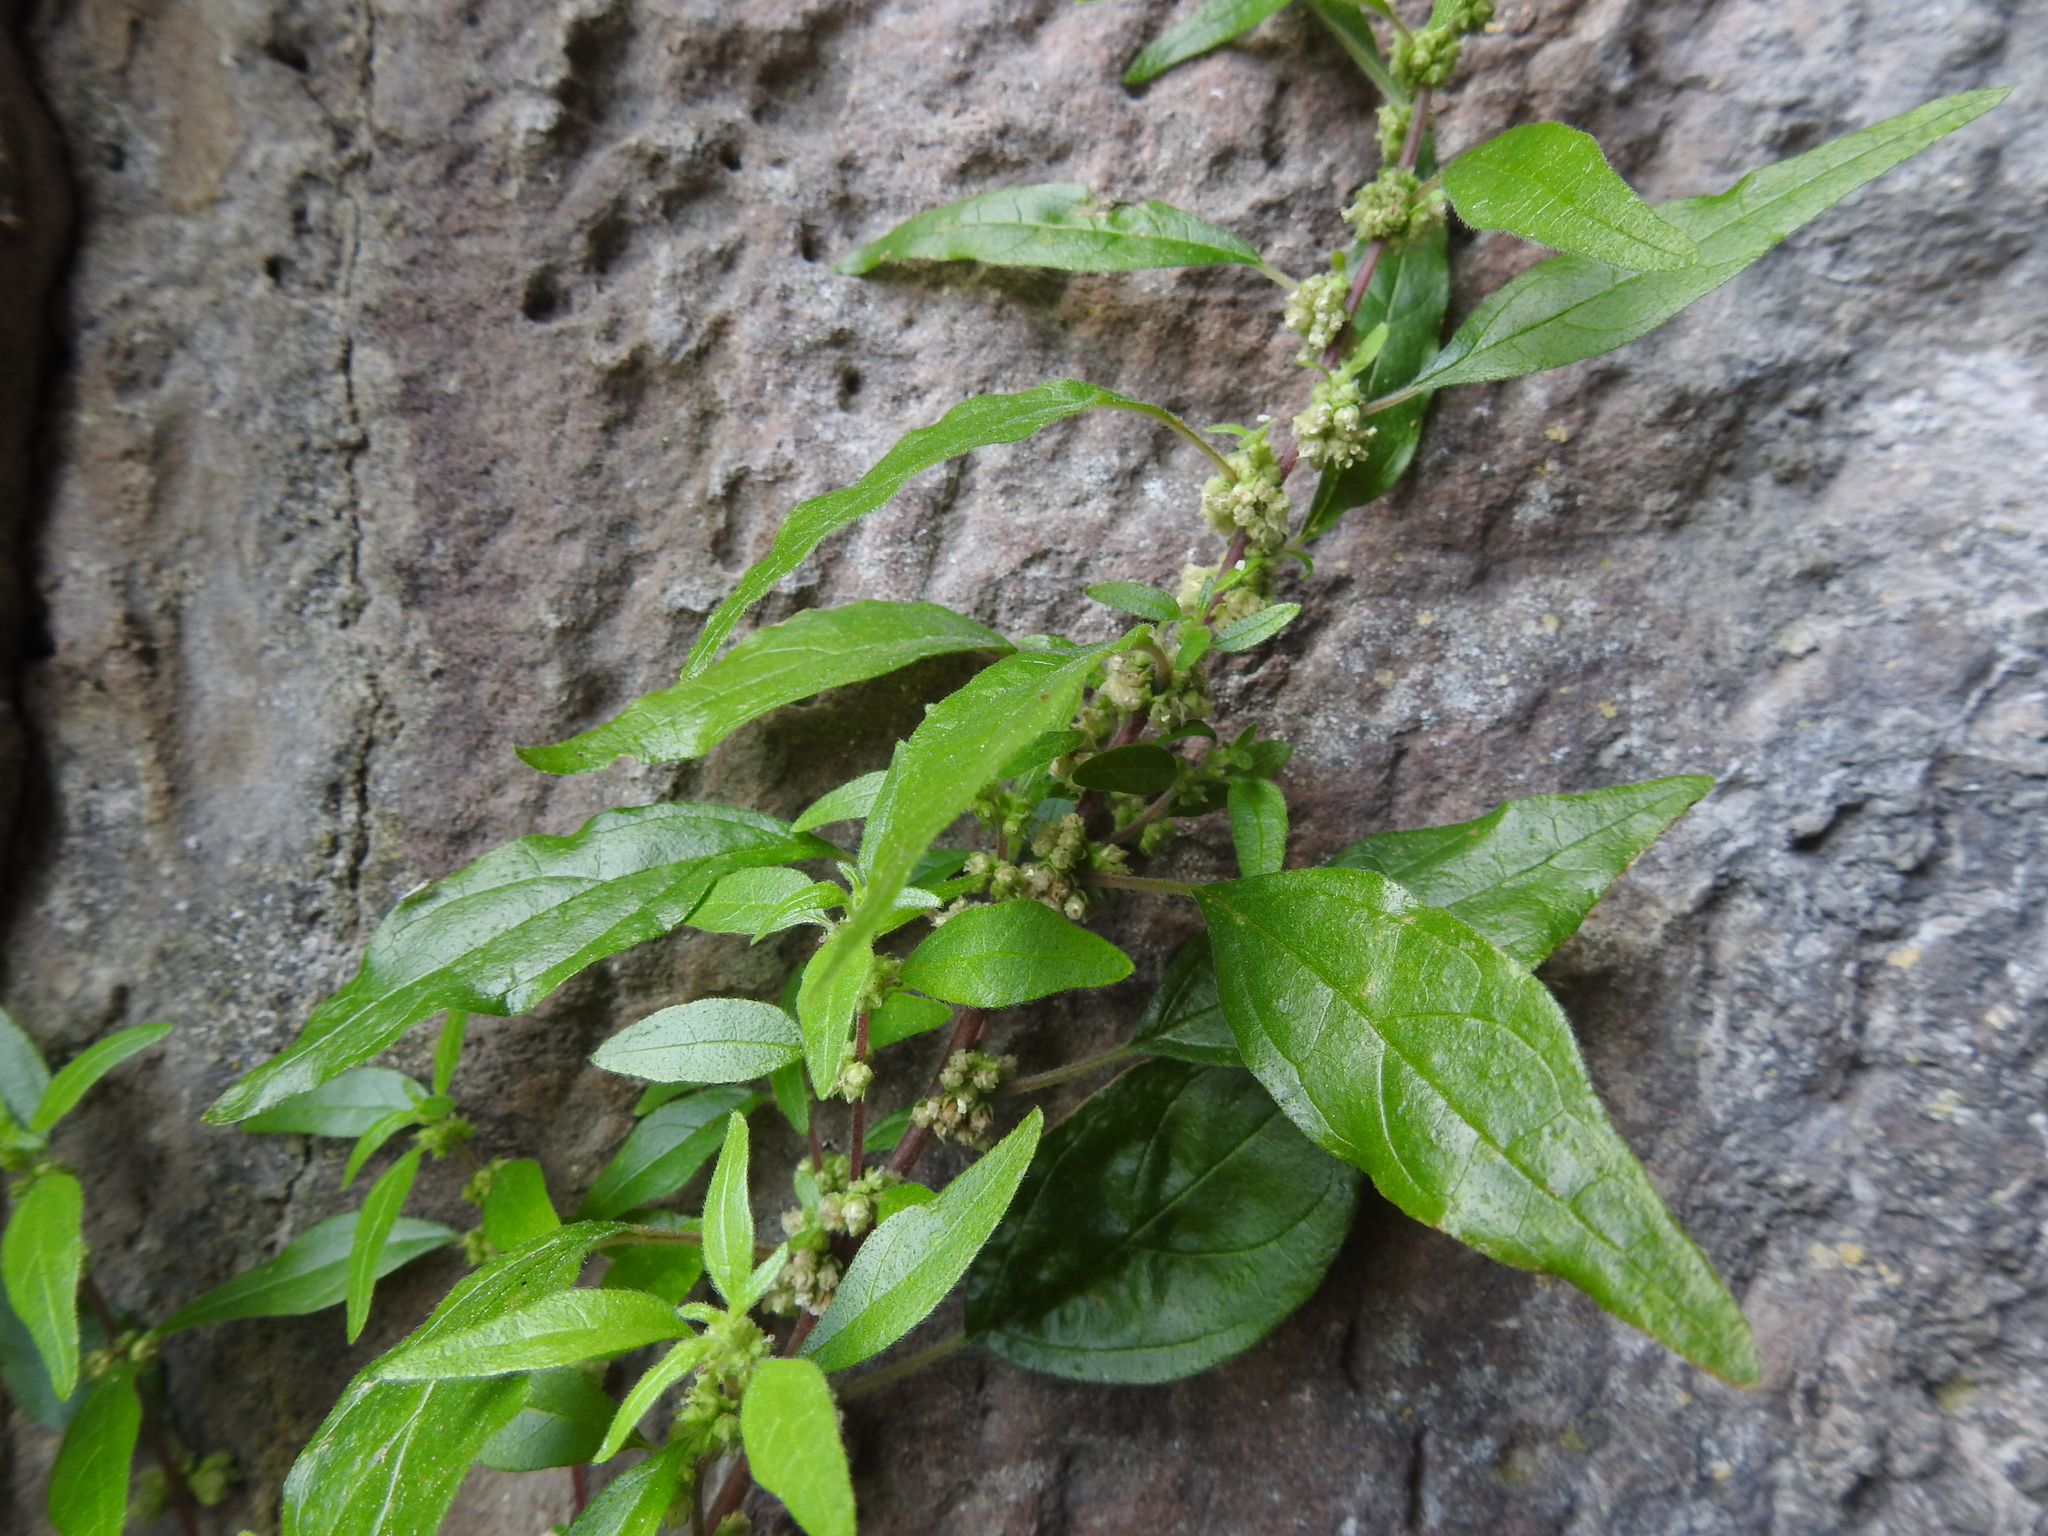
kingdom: Plantae
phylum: Tracheophyta
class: Magnoliopsida
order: Rosales
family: Urticaceae
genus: Parietaria
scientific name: Parietaria officinalis
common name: Eastern pellitory-of-the-wall
